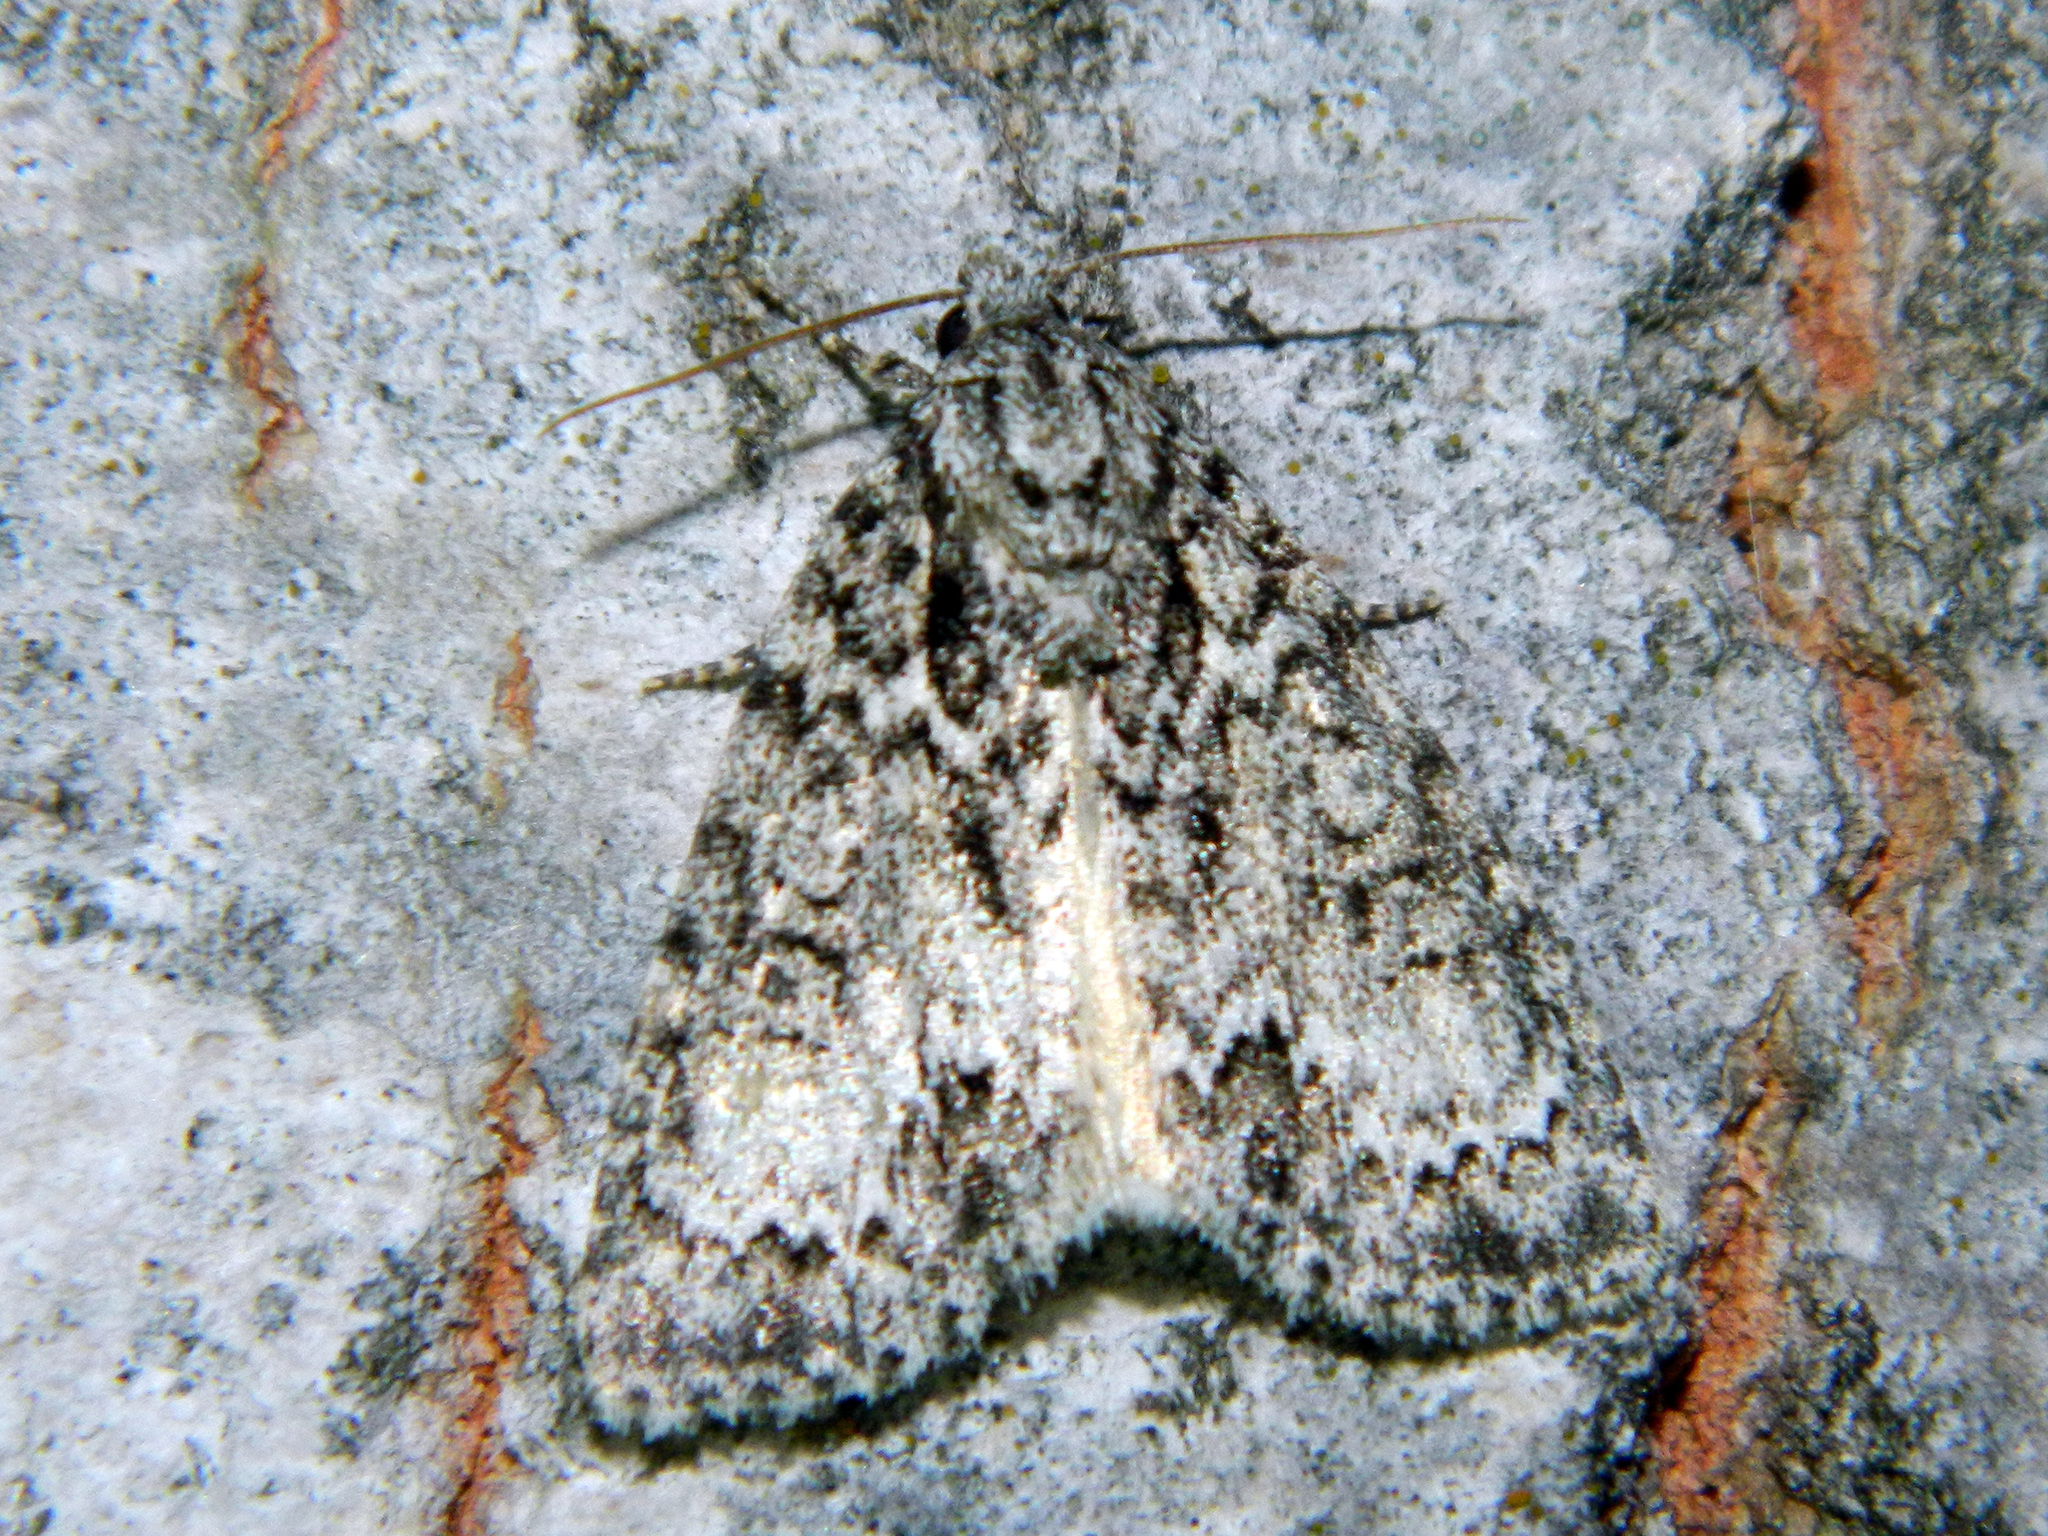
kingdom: Animalia
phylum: Arthropoda
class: Insecta
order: Lepidoptera
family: Noctuidae
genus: Acronicta
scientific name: Acronicta fragilis
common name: Fragile dagger
